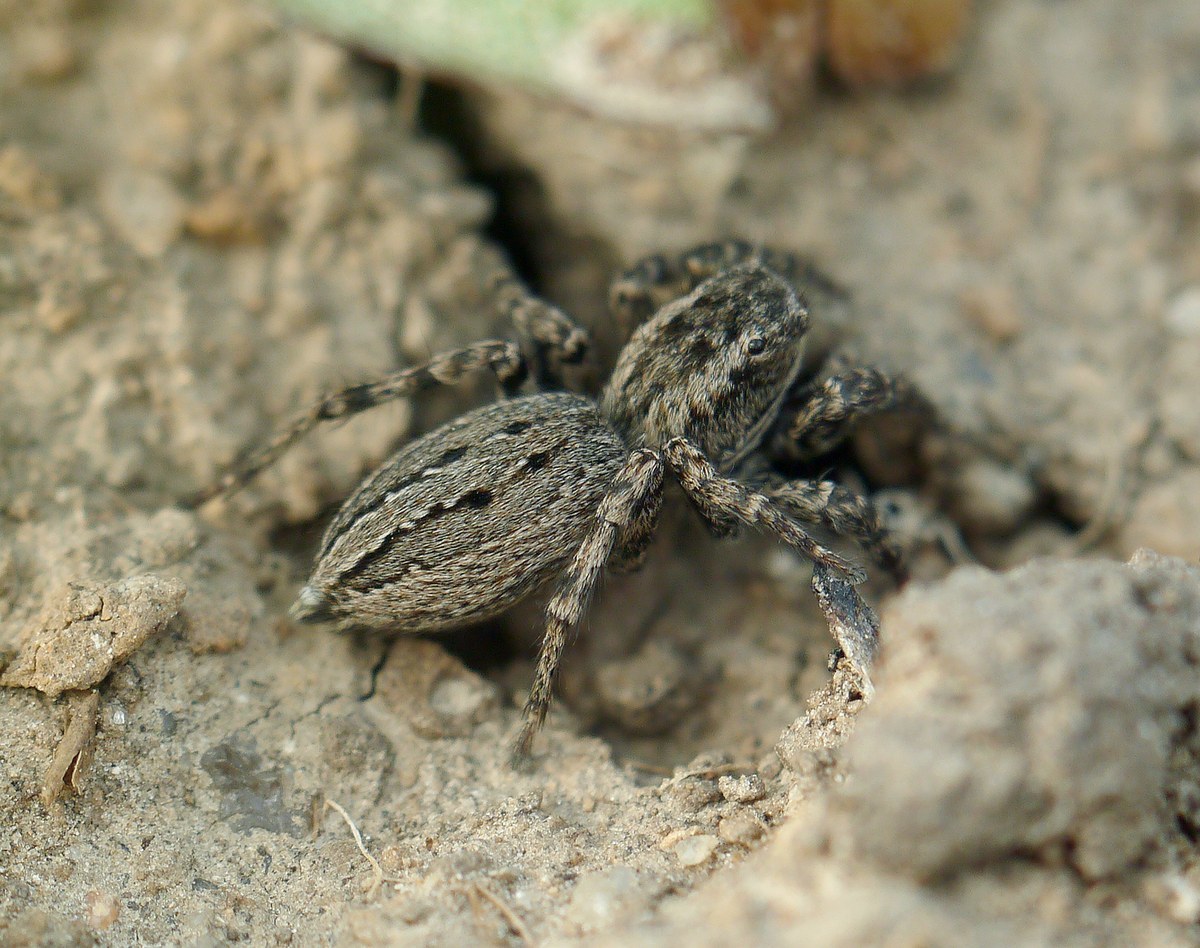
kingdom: Animalia
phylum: Arthropoda
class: Arachnida
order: Araneae
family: Salticidae
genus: Phlegra
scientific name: Phlegra cinereofasciata
